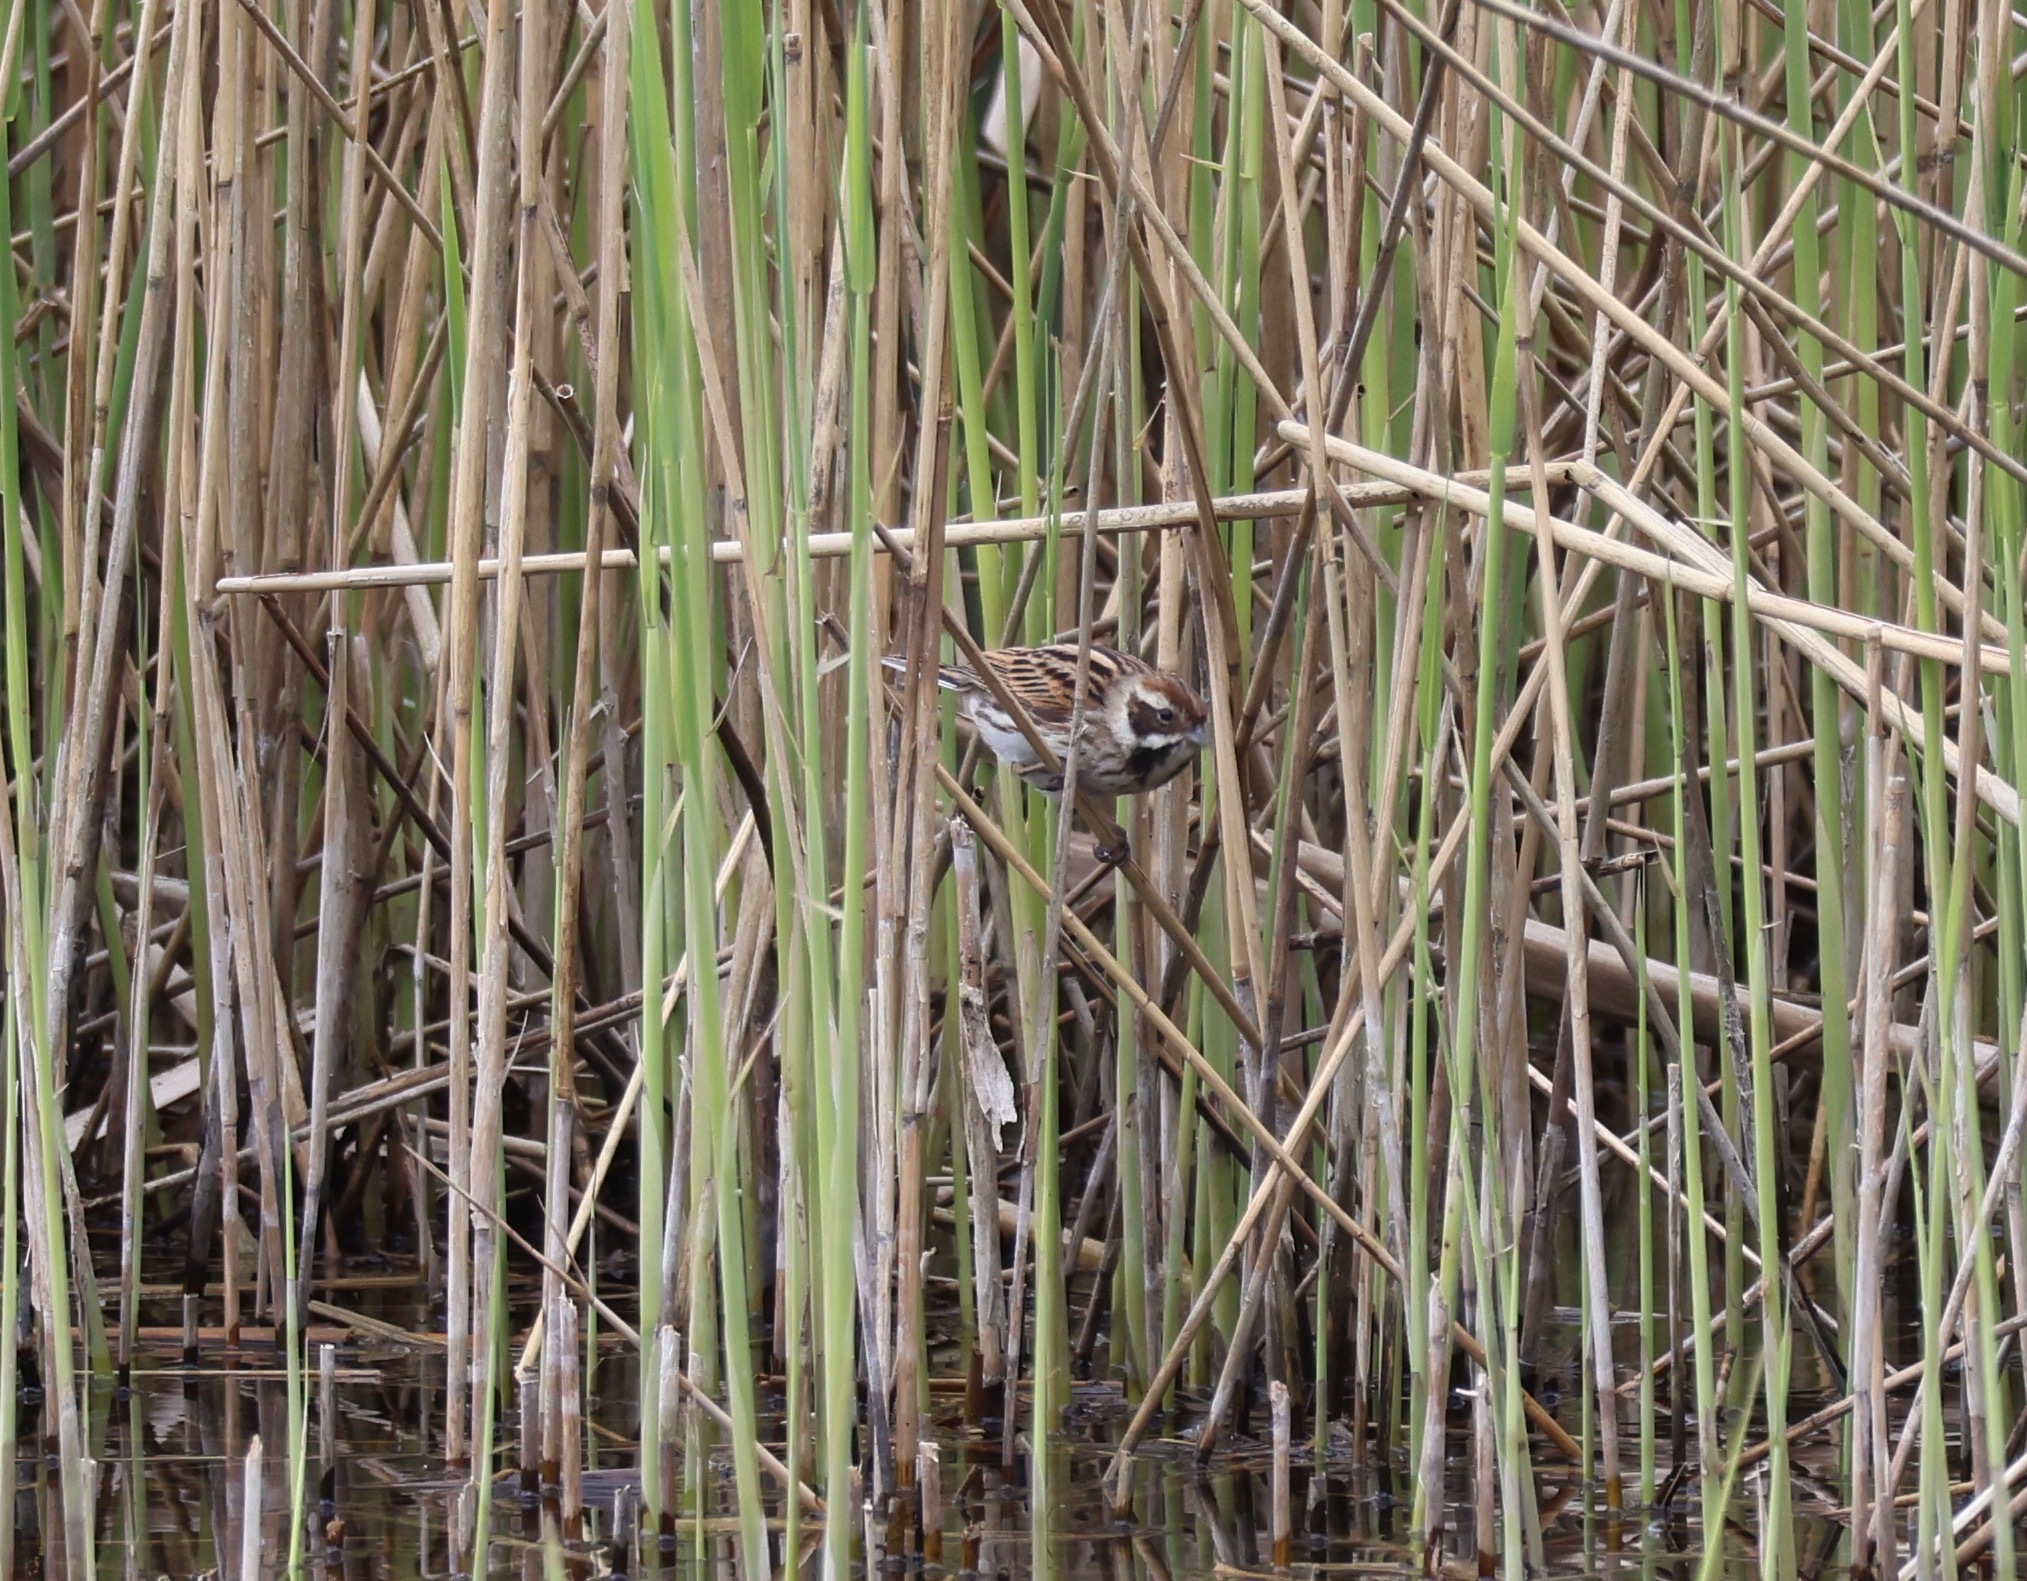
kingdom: Animalia
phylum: Chordata
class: Aves
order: Passeriformes
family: Emberizidae
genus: Emberiza
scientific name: Emberiza schoeniclus
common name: Reed bunting
